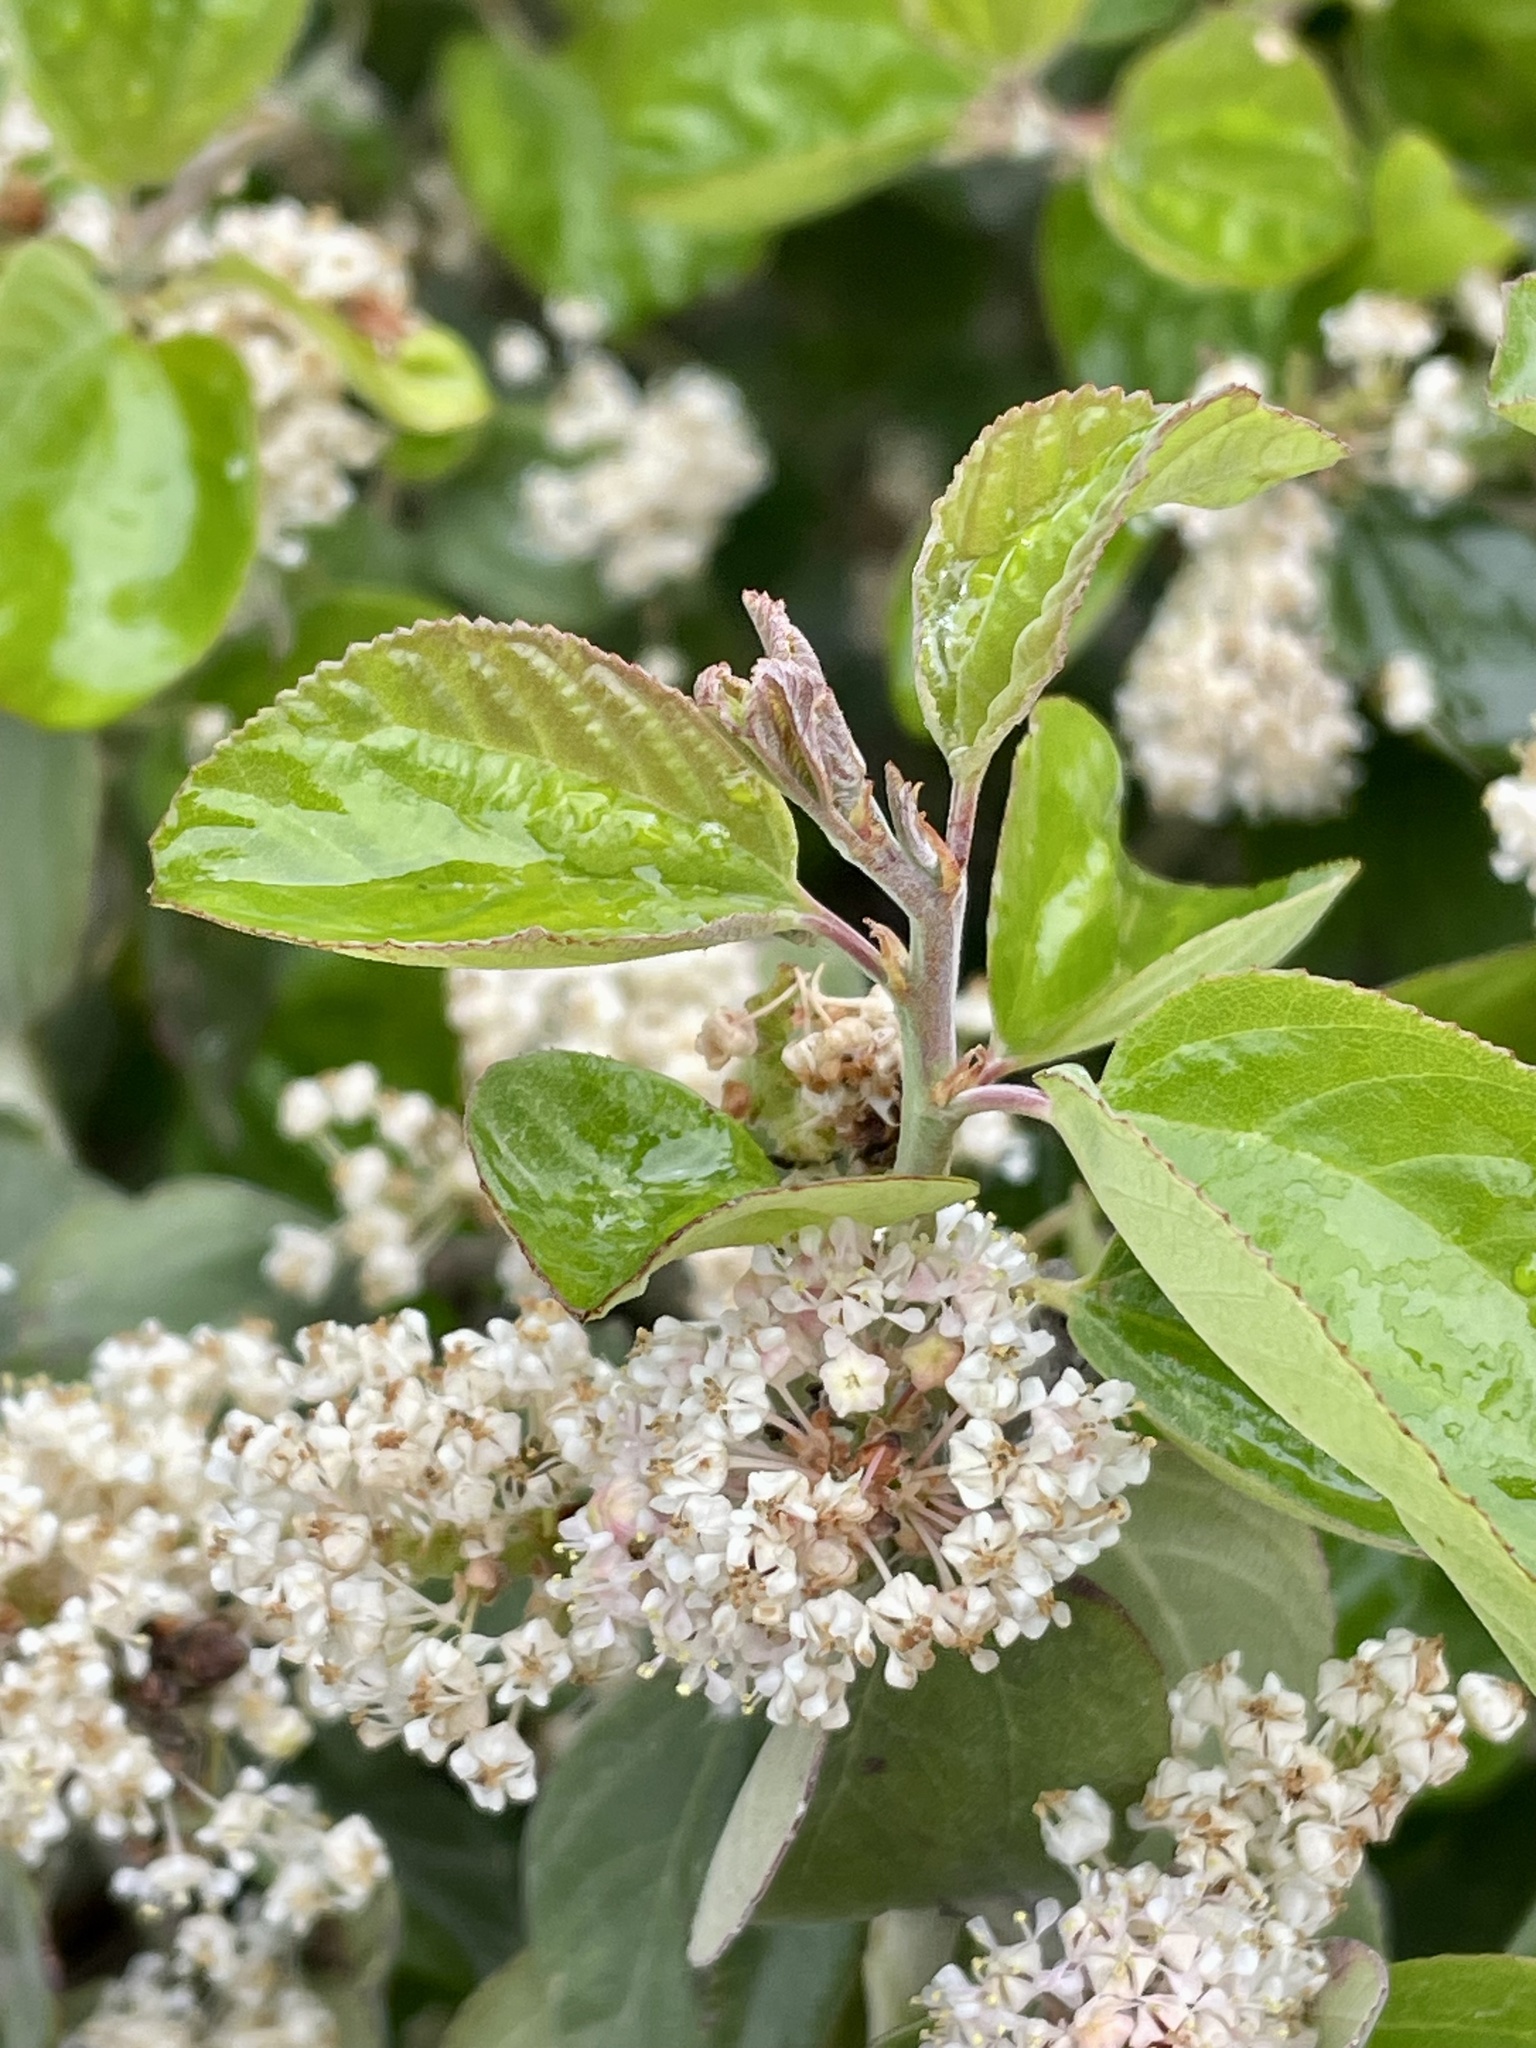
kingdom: Plantae
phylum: Tracheophyta
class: Magnoliopsida
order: Rosales
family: Rhamnaceae
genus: Ceanothus
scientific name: Ceanothus incanus
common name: Coast whitethorn
